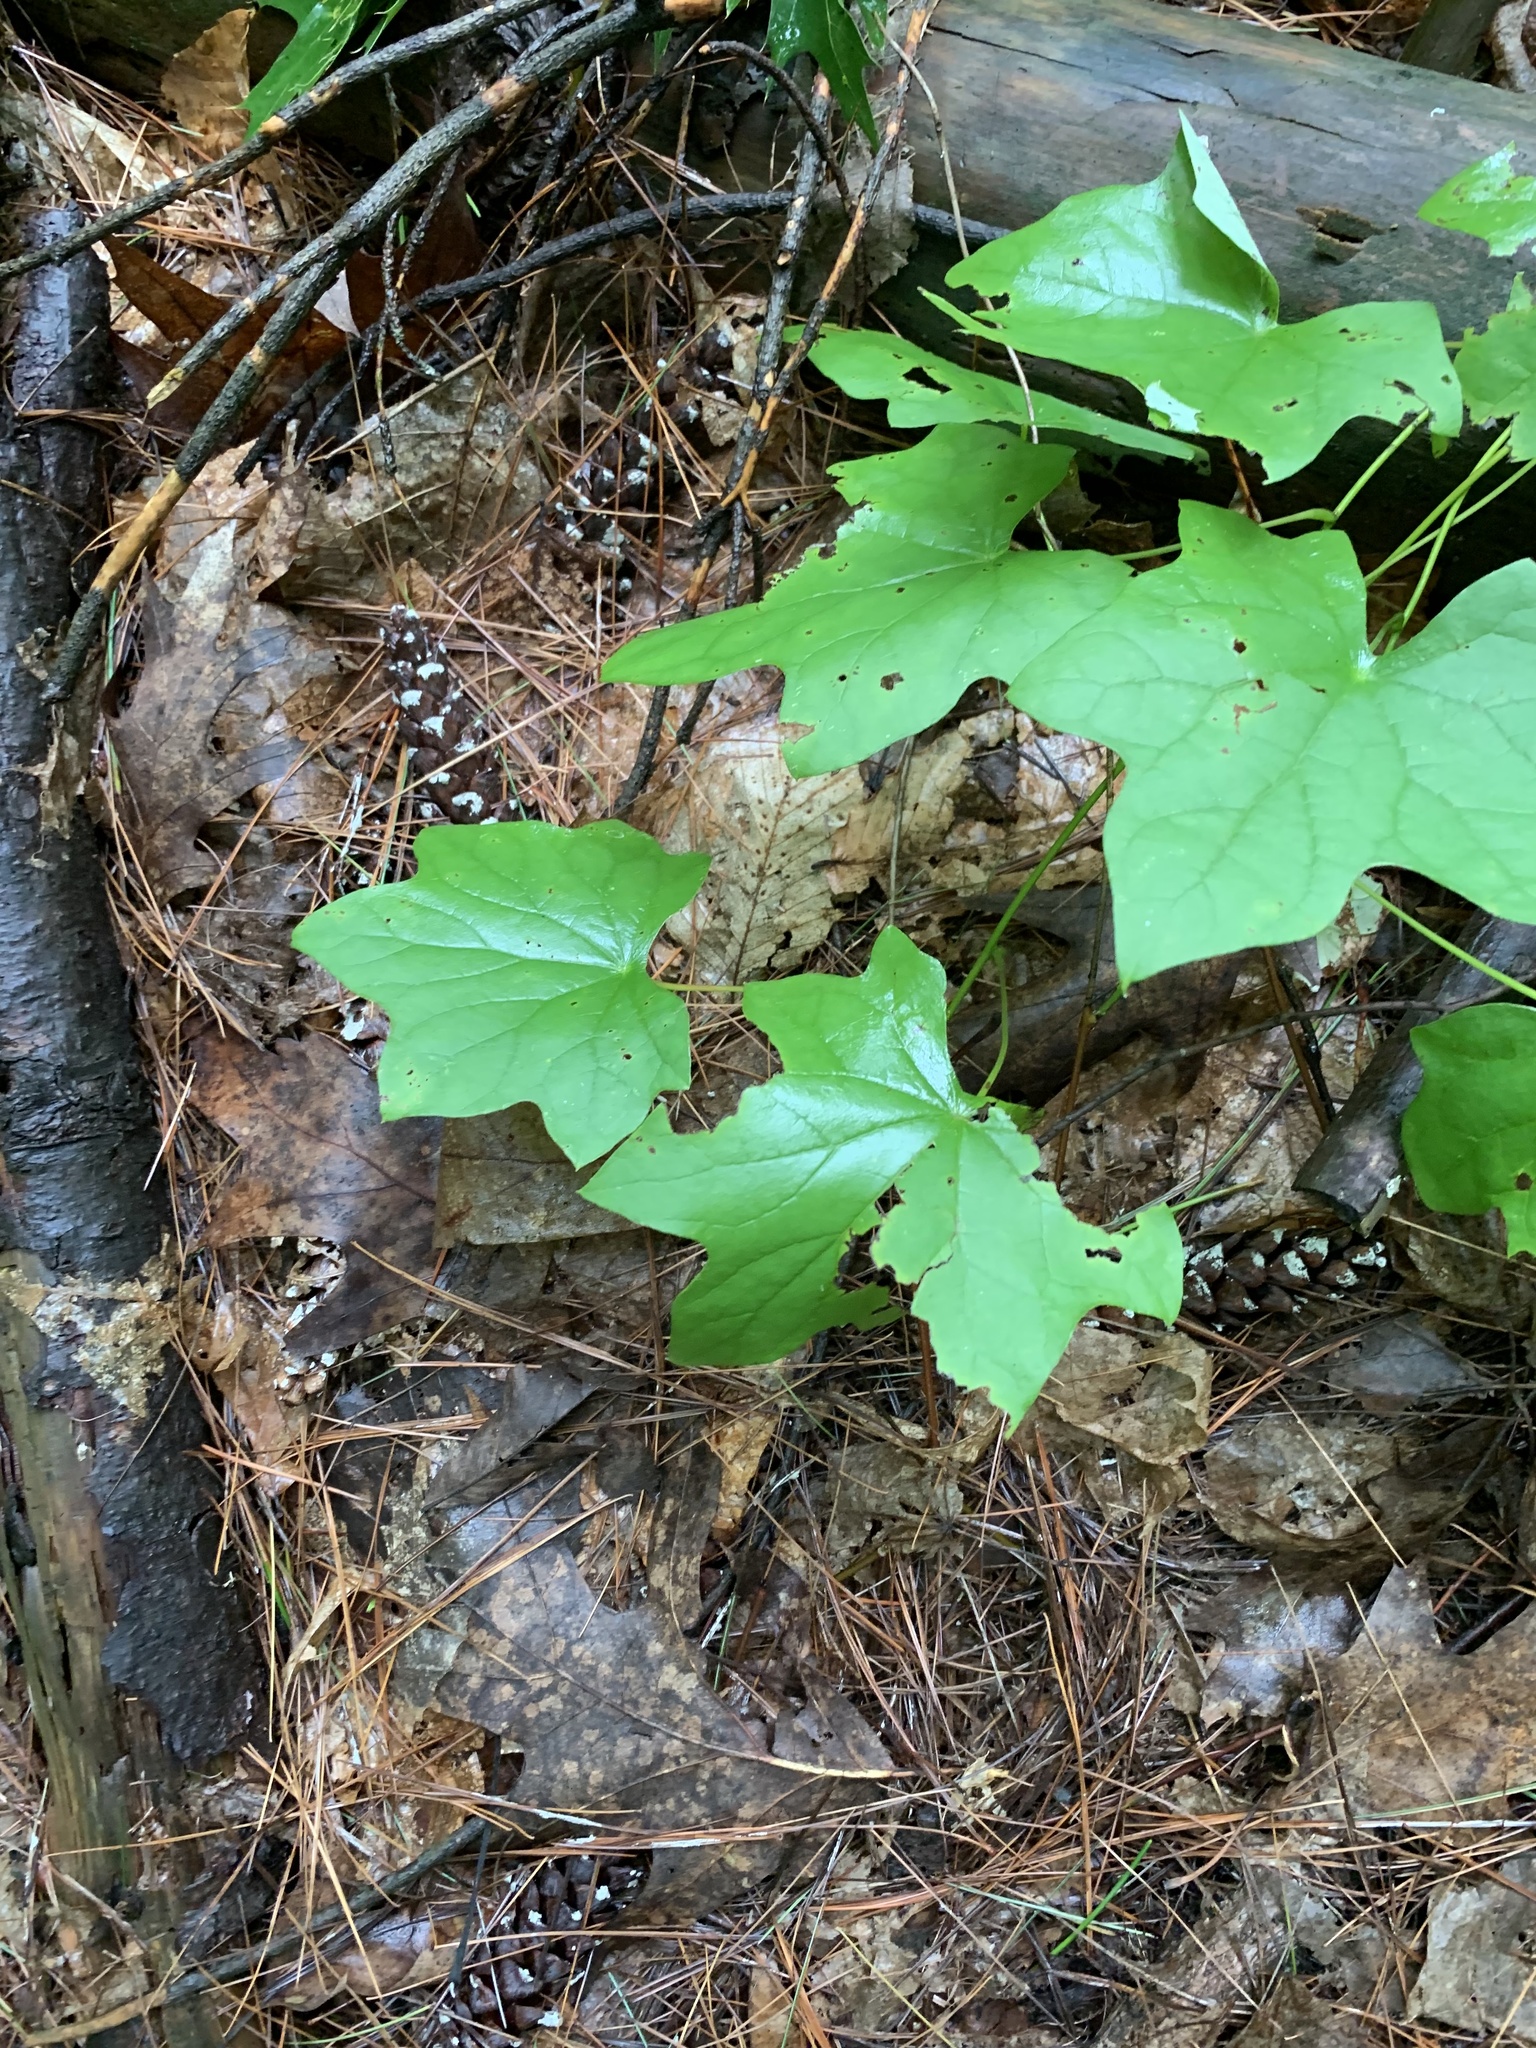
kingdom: Plantae
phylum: Tracheophyta
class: Magnoliopsida
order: Ranunculales
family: Menispermaceae
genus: Menispermum
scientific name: Menispermum canadense
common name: Moonseed
